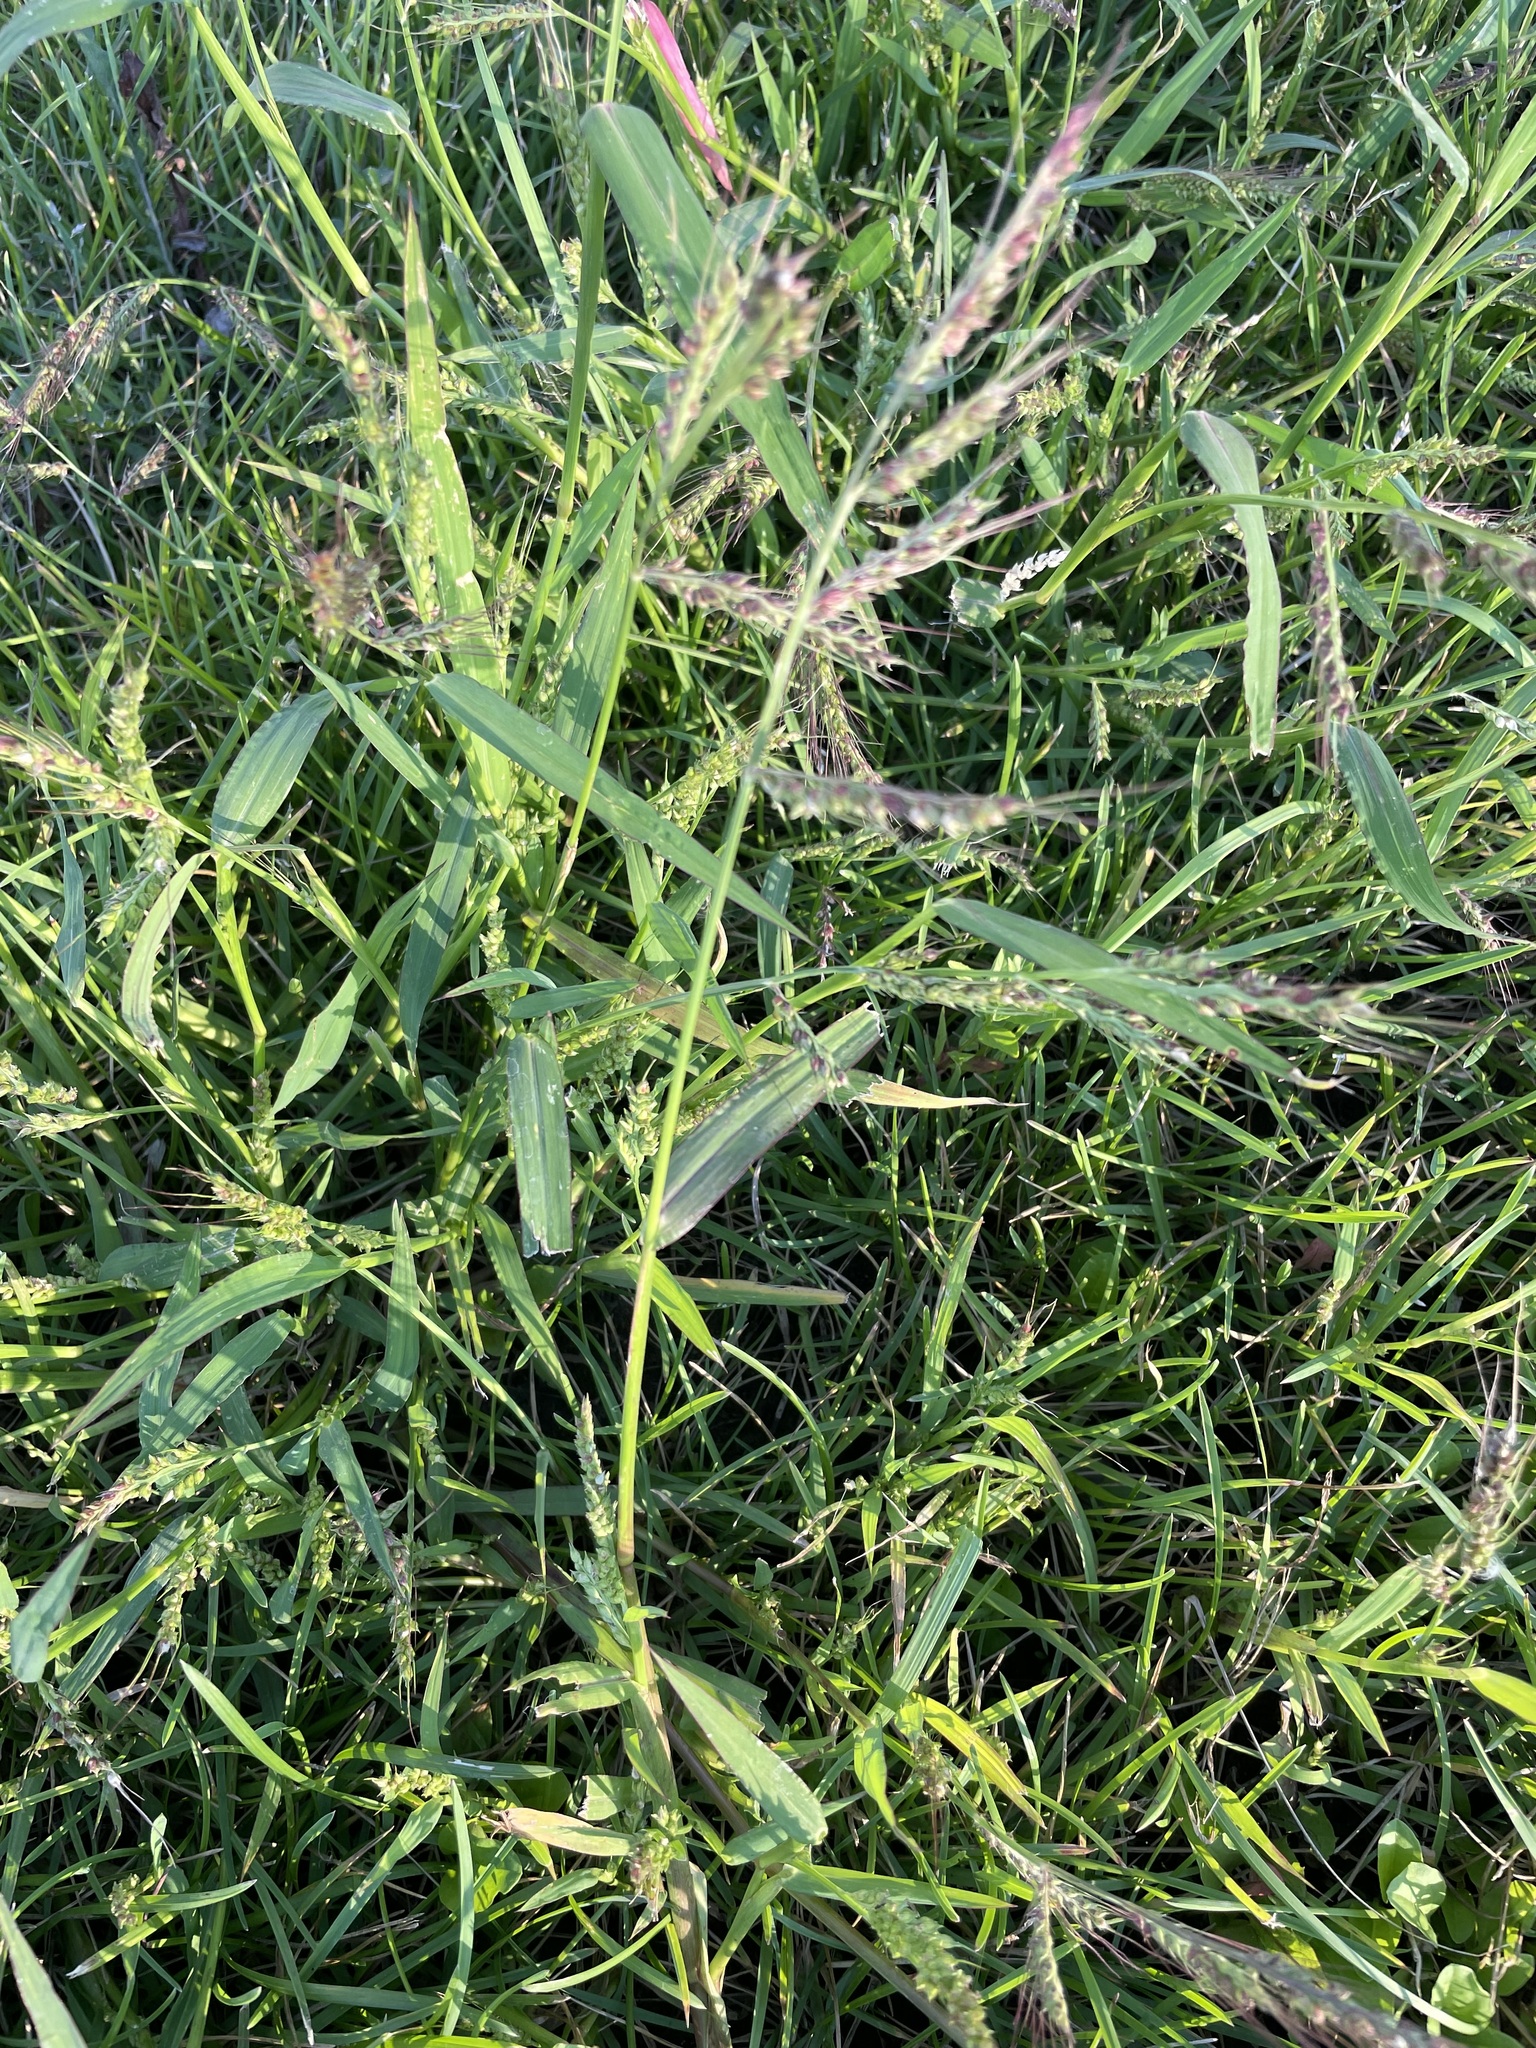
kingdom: Plantae
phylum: Tracheophyta
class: Liliopsida
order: Poales
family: Poaceae
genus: Echinochloa
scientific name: Echinochloa crus-galli
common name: Cockspur
